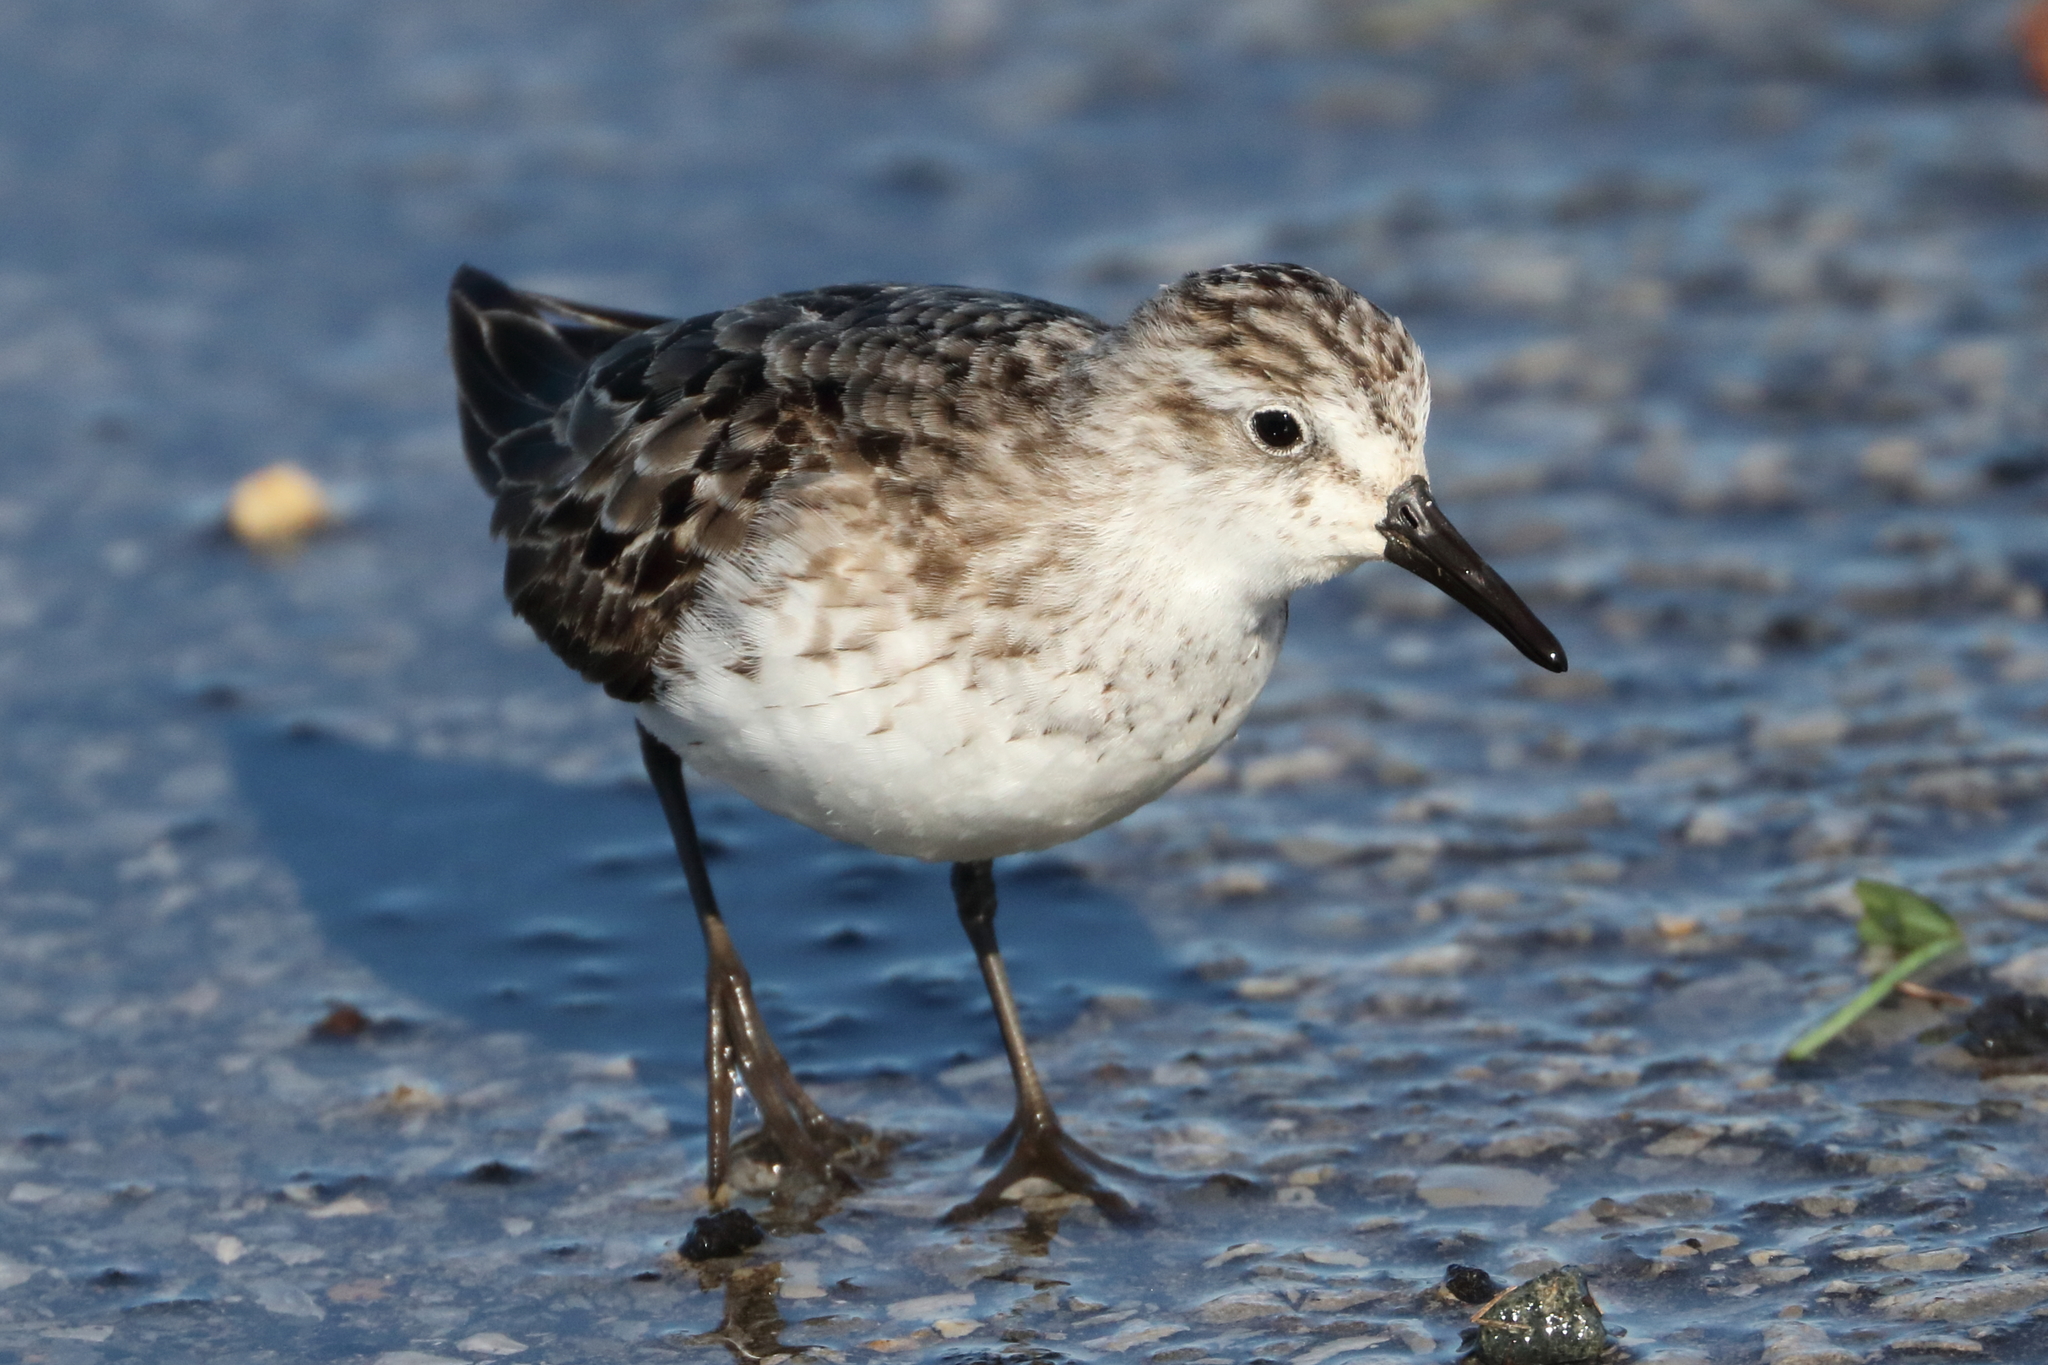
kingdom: Animalia
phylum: Chordata
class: Aves
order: Charadriiformes
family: Scolopacidae
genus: Calidris
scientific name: Calidris pusilla
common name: Semipalmated sandpiper
